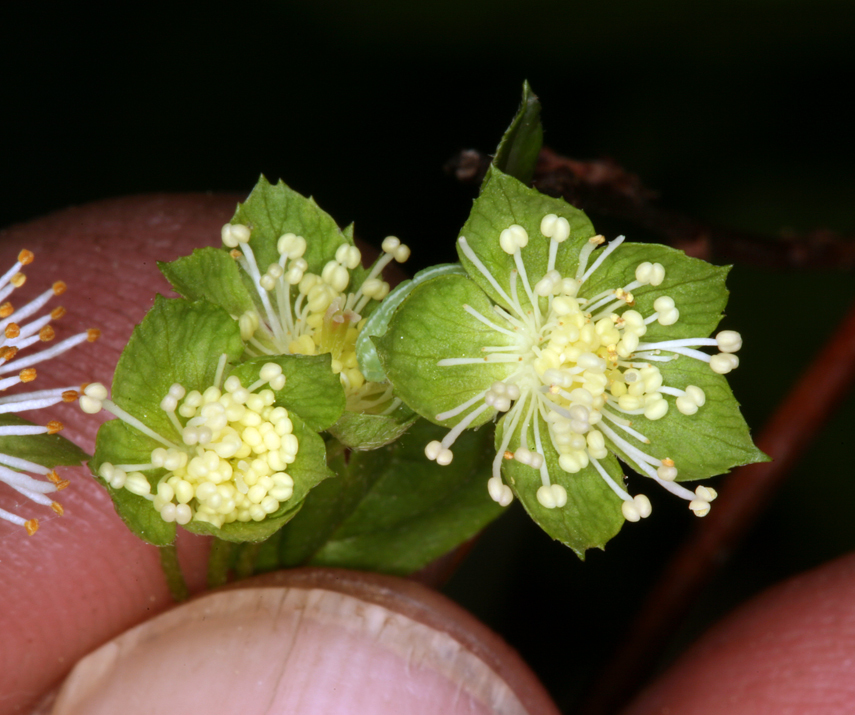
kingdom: Plantae
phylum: Tracheophyta
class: Magnoliopsida
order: Rosales
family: Rosaceae
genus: Neviusia
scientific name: Neviusia cliftonii
